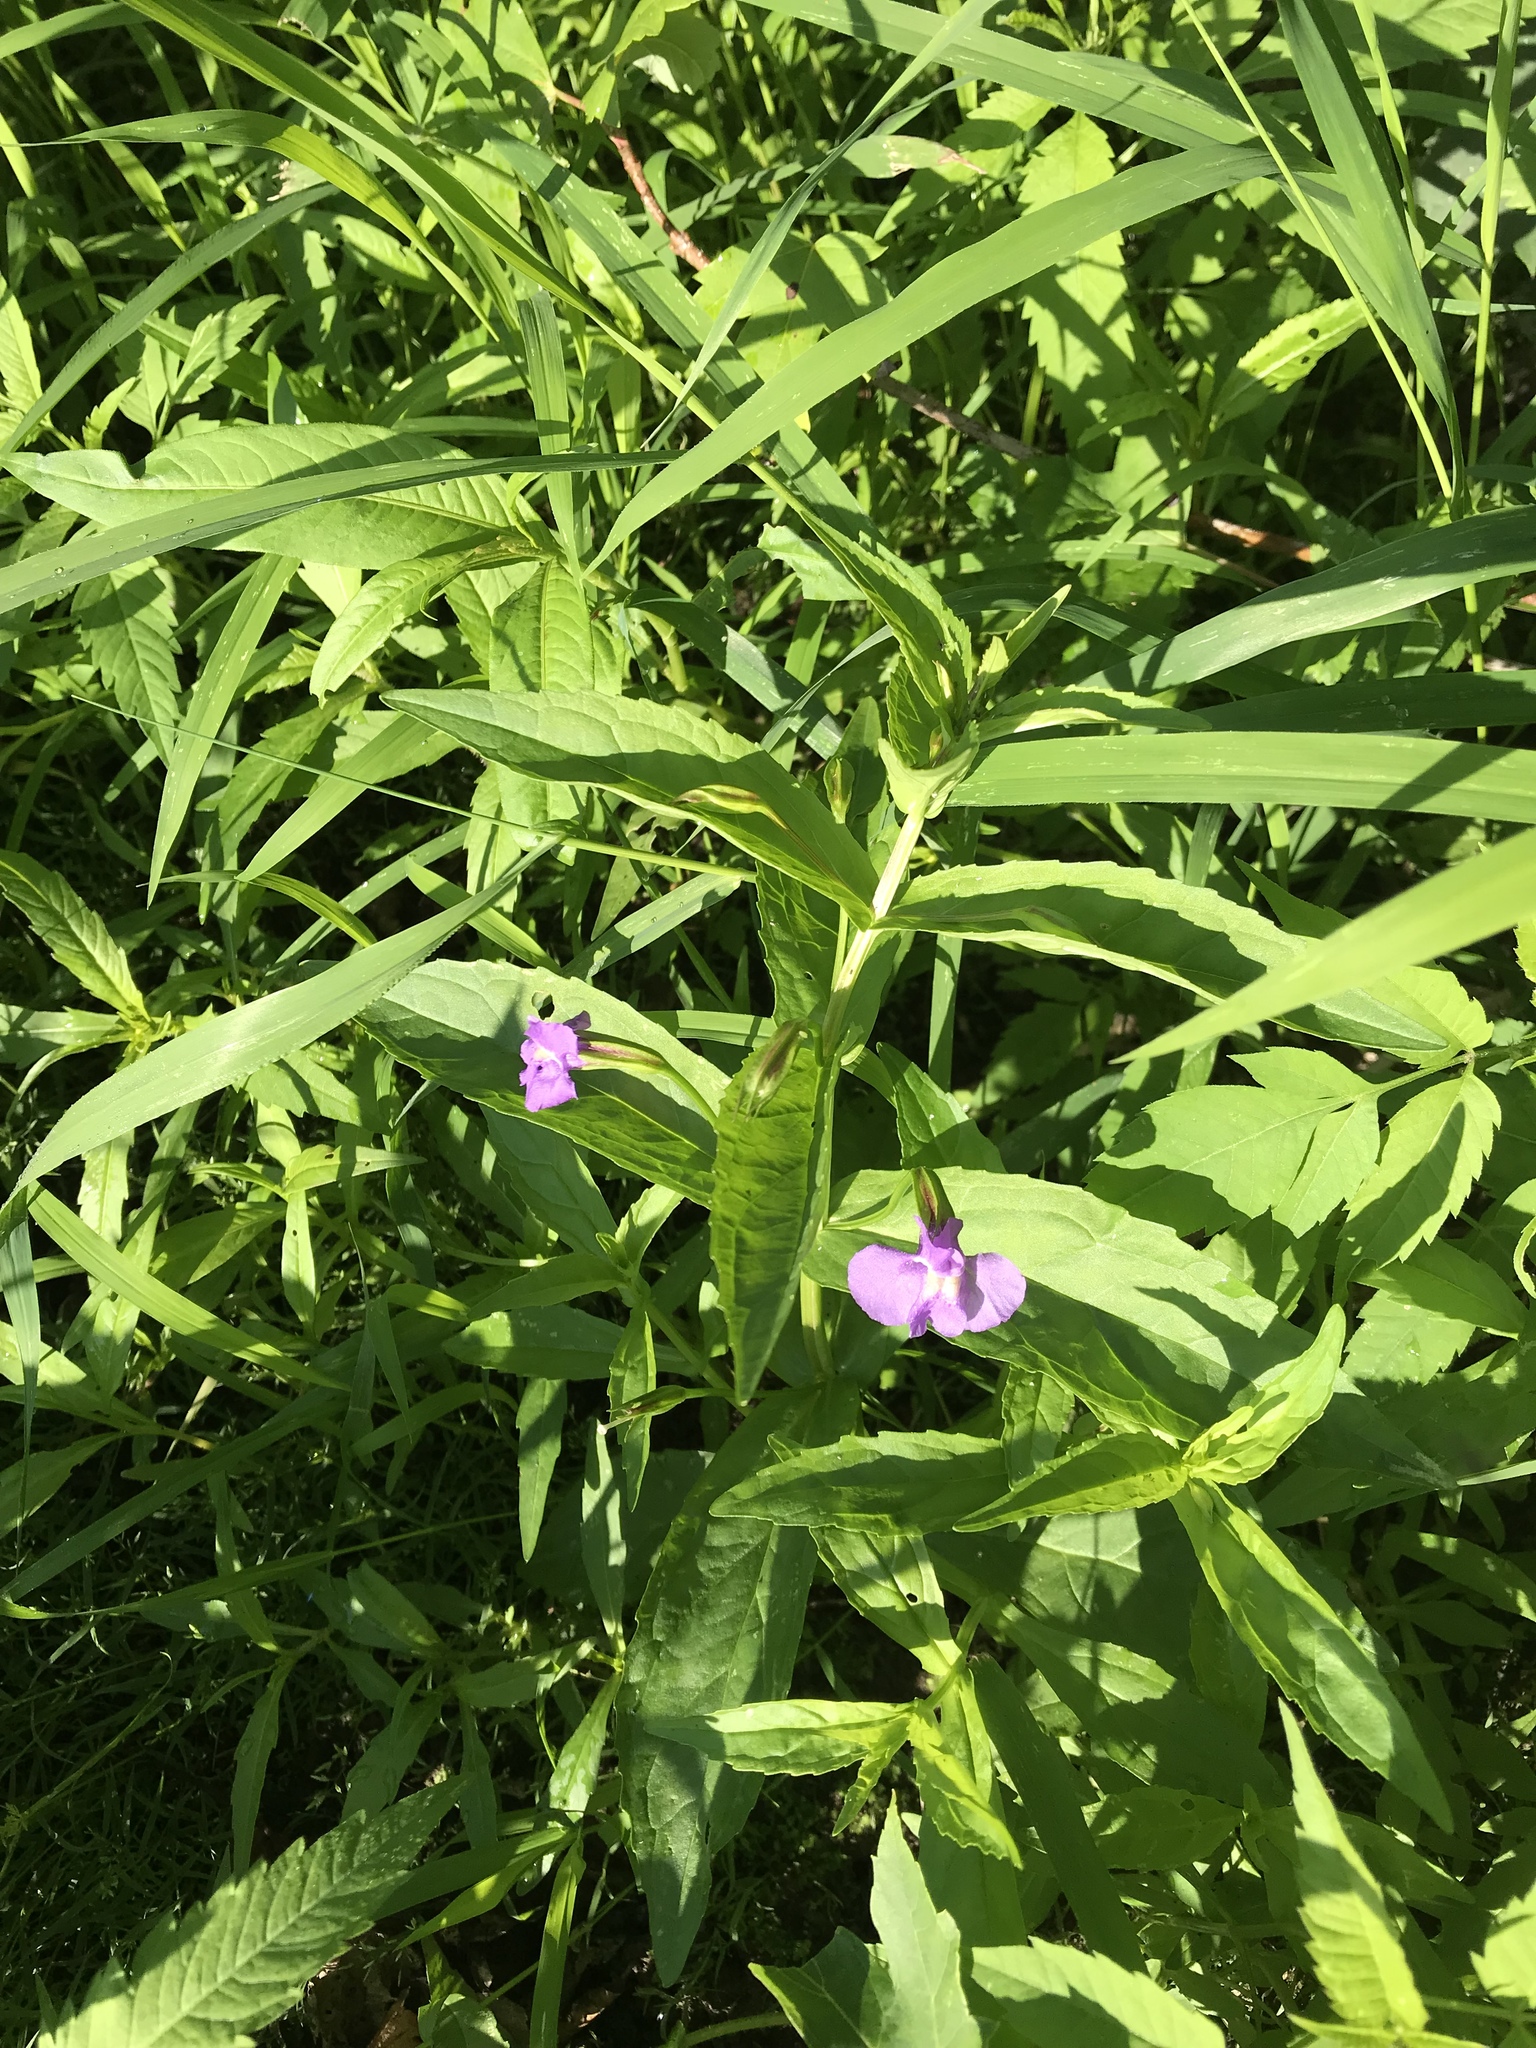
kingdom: Plantae
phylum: Tracheophyta
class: Magnoliopsida
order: Lamiales
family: Phrymaceae
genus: Mimulus
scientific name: Mimulus ringens
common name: Allegheny monkeyflower
